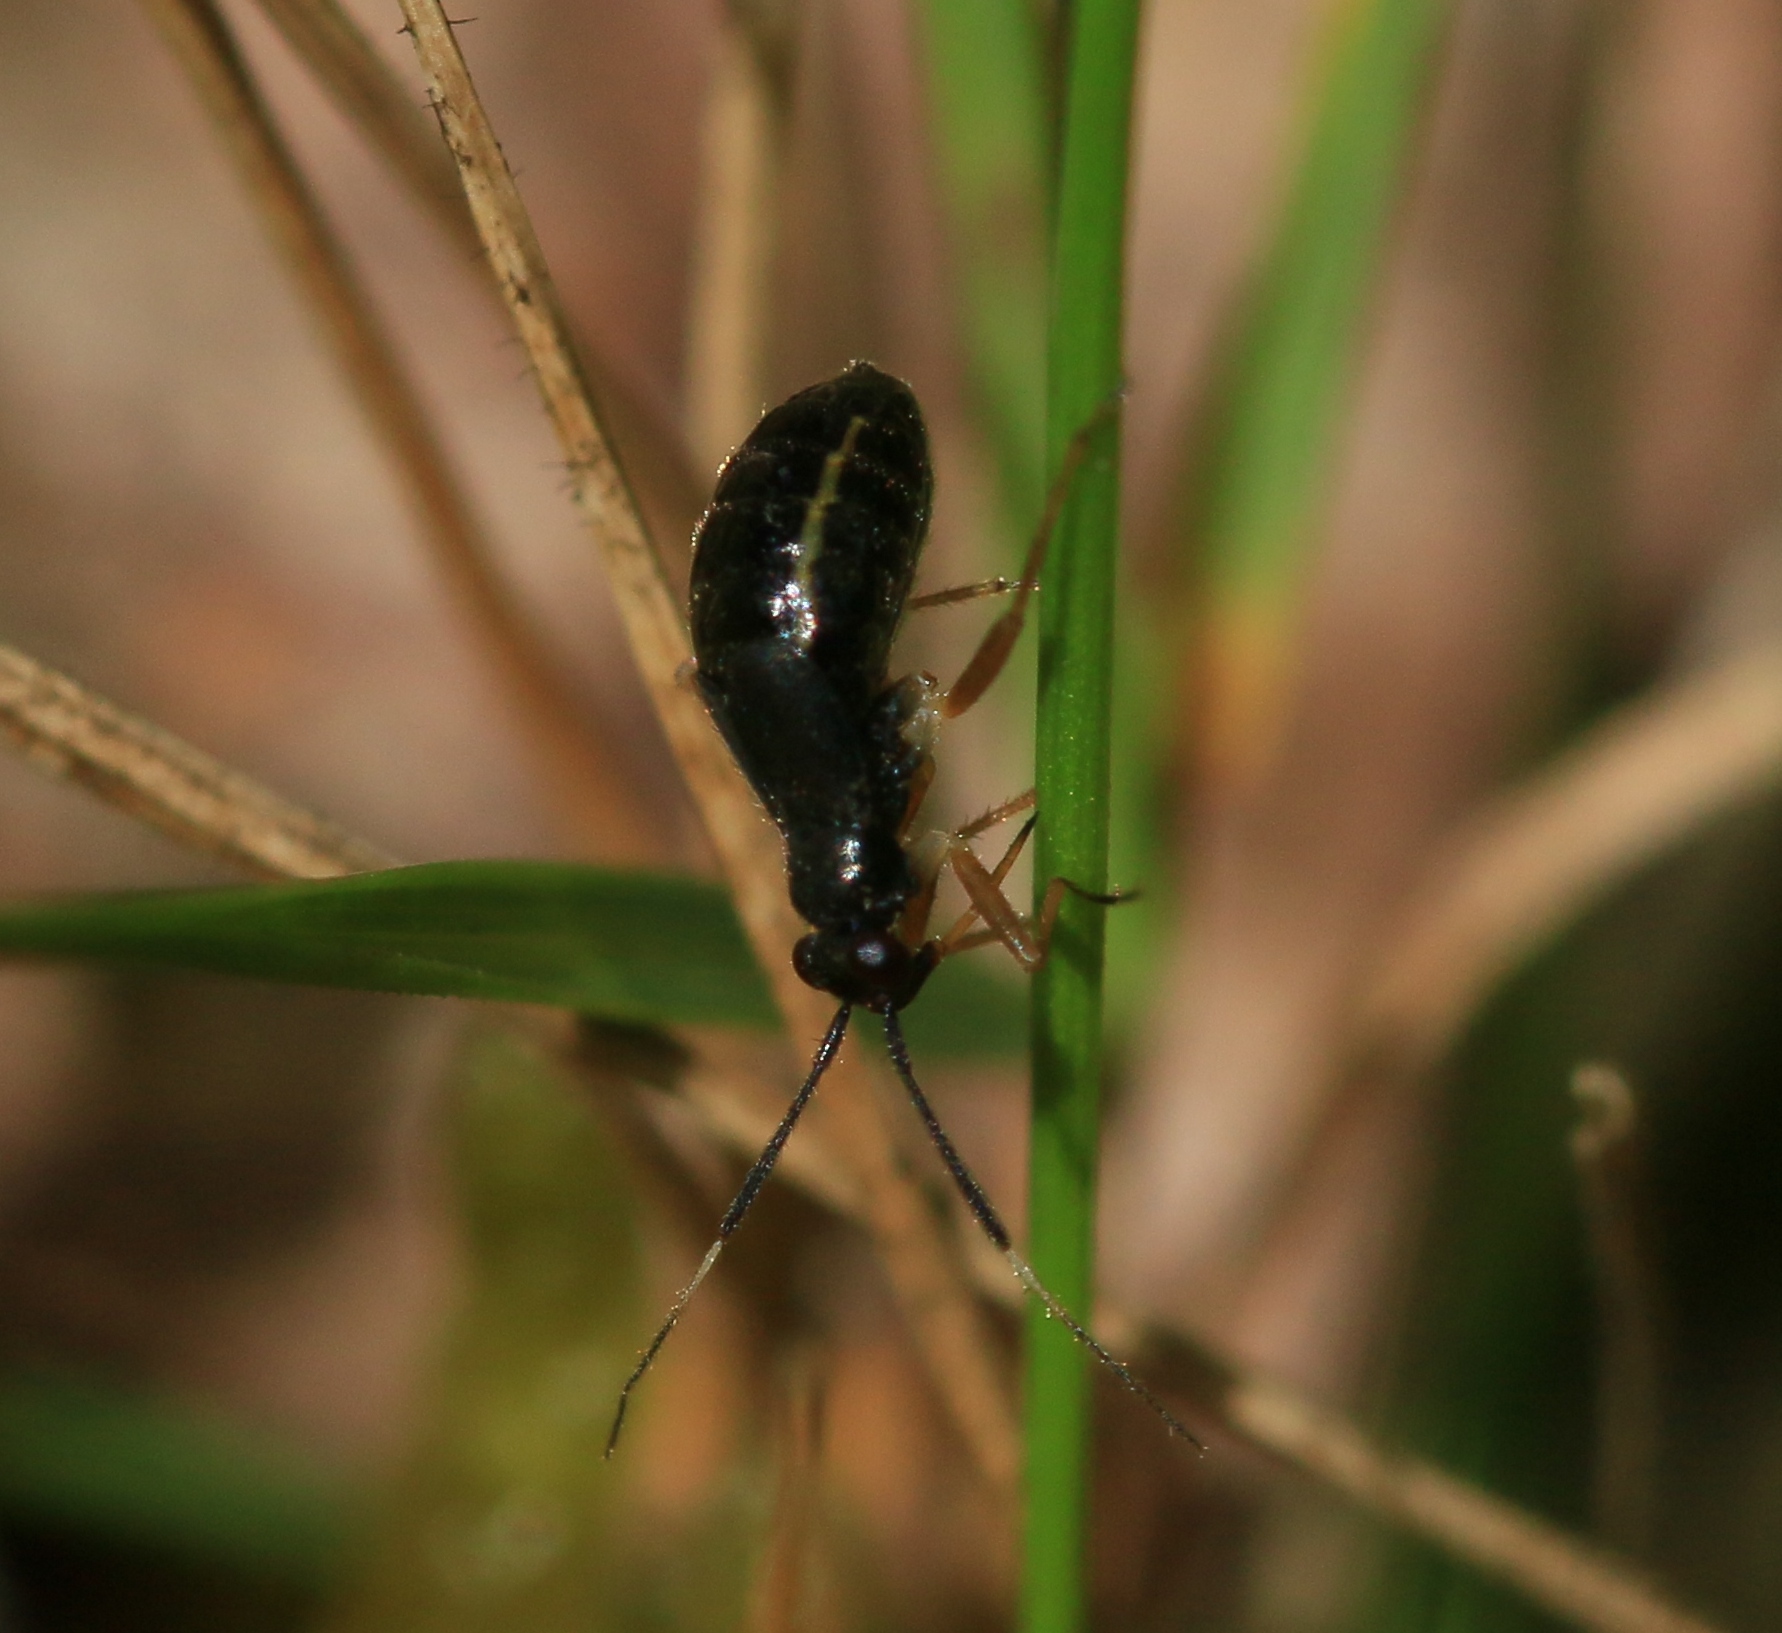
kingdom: Animalia
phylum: Arthropoda
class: Insecta
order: Hemiptera
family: Miridae
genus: Mecomma
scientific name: Mecomma ambulans
